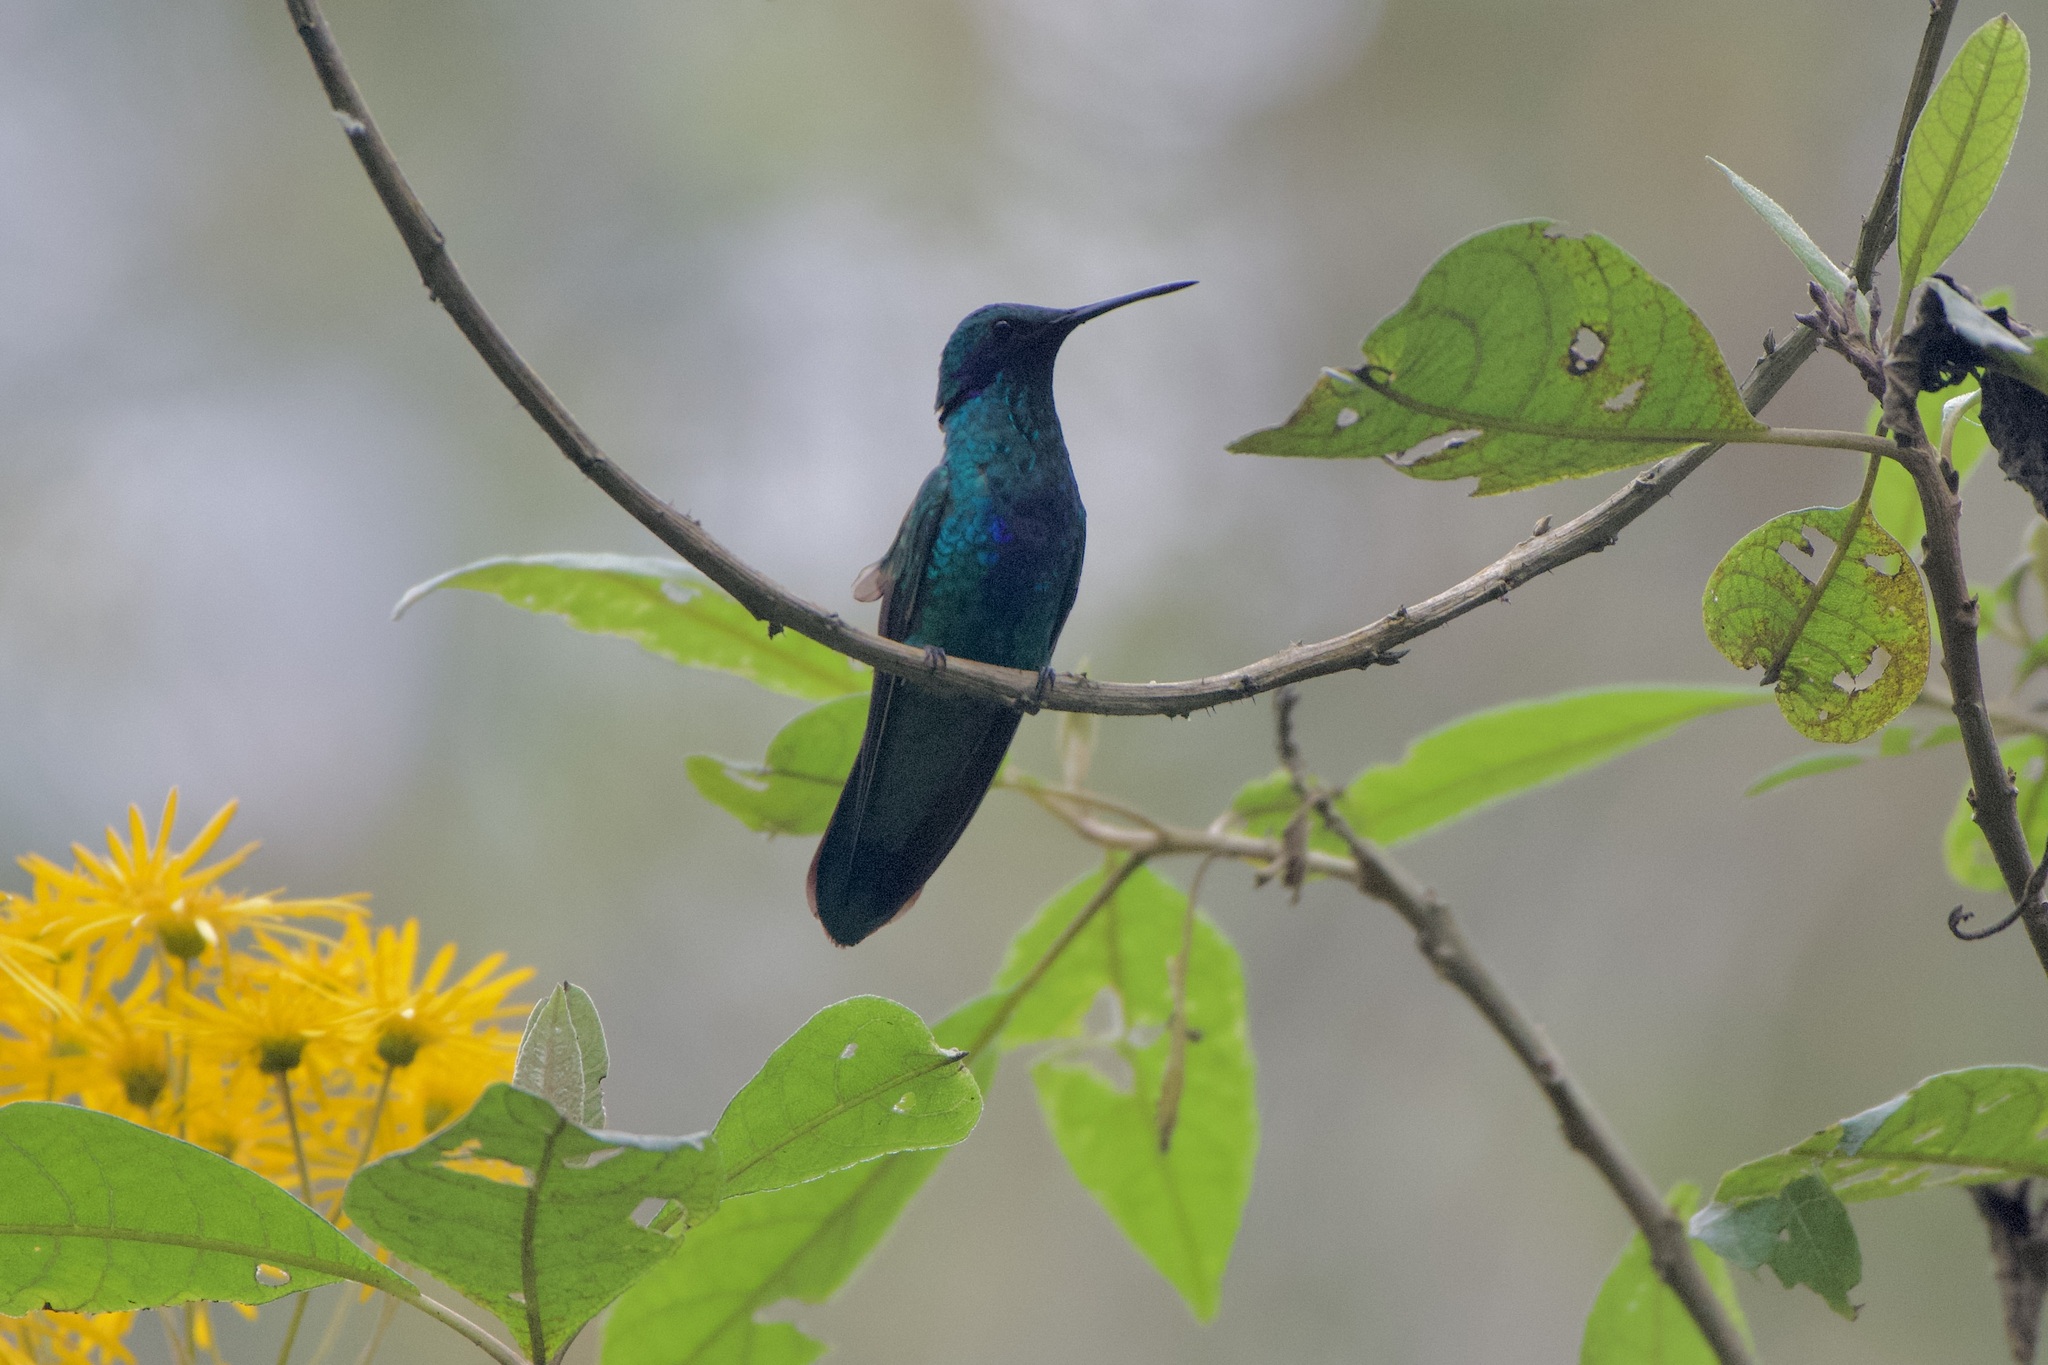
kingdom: Animalia
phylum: Chordata
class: Aves
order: Apodiformes
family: Trochilidae
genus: Colibri
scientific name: Colibri coruscans
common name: Sparkling violetear
